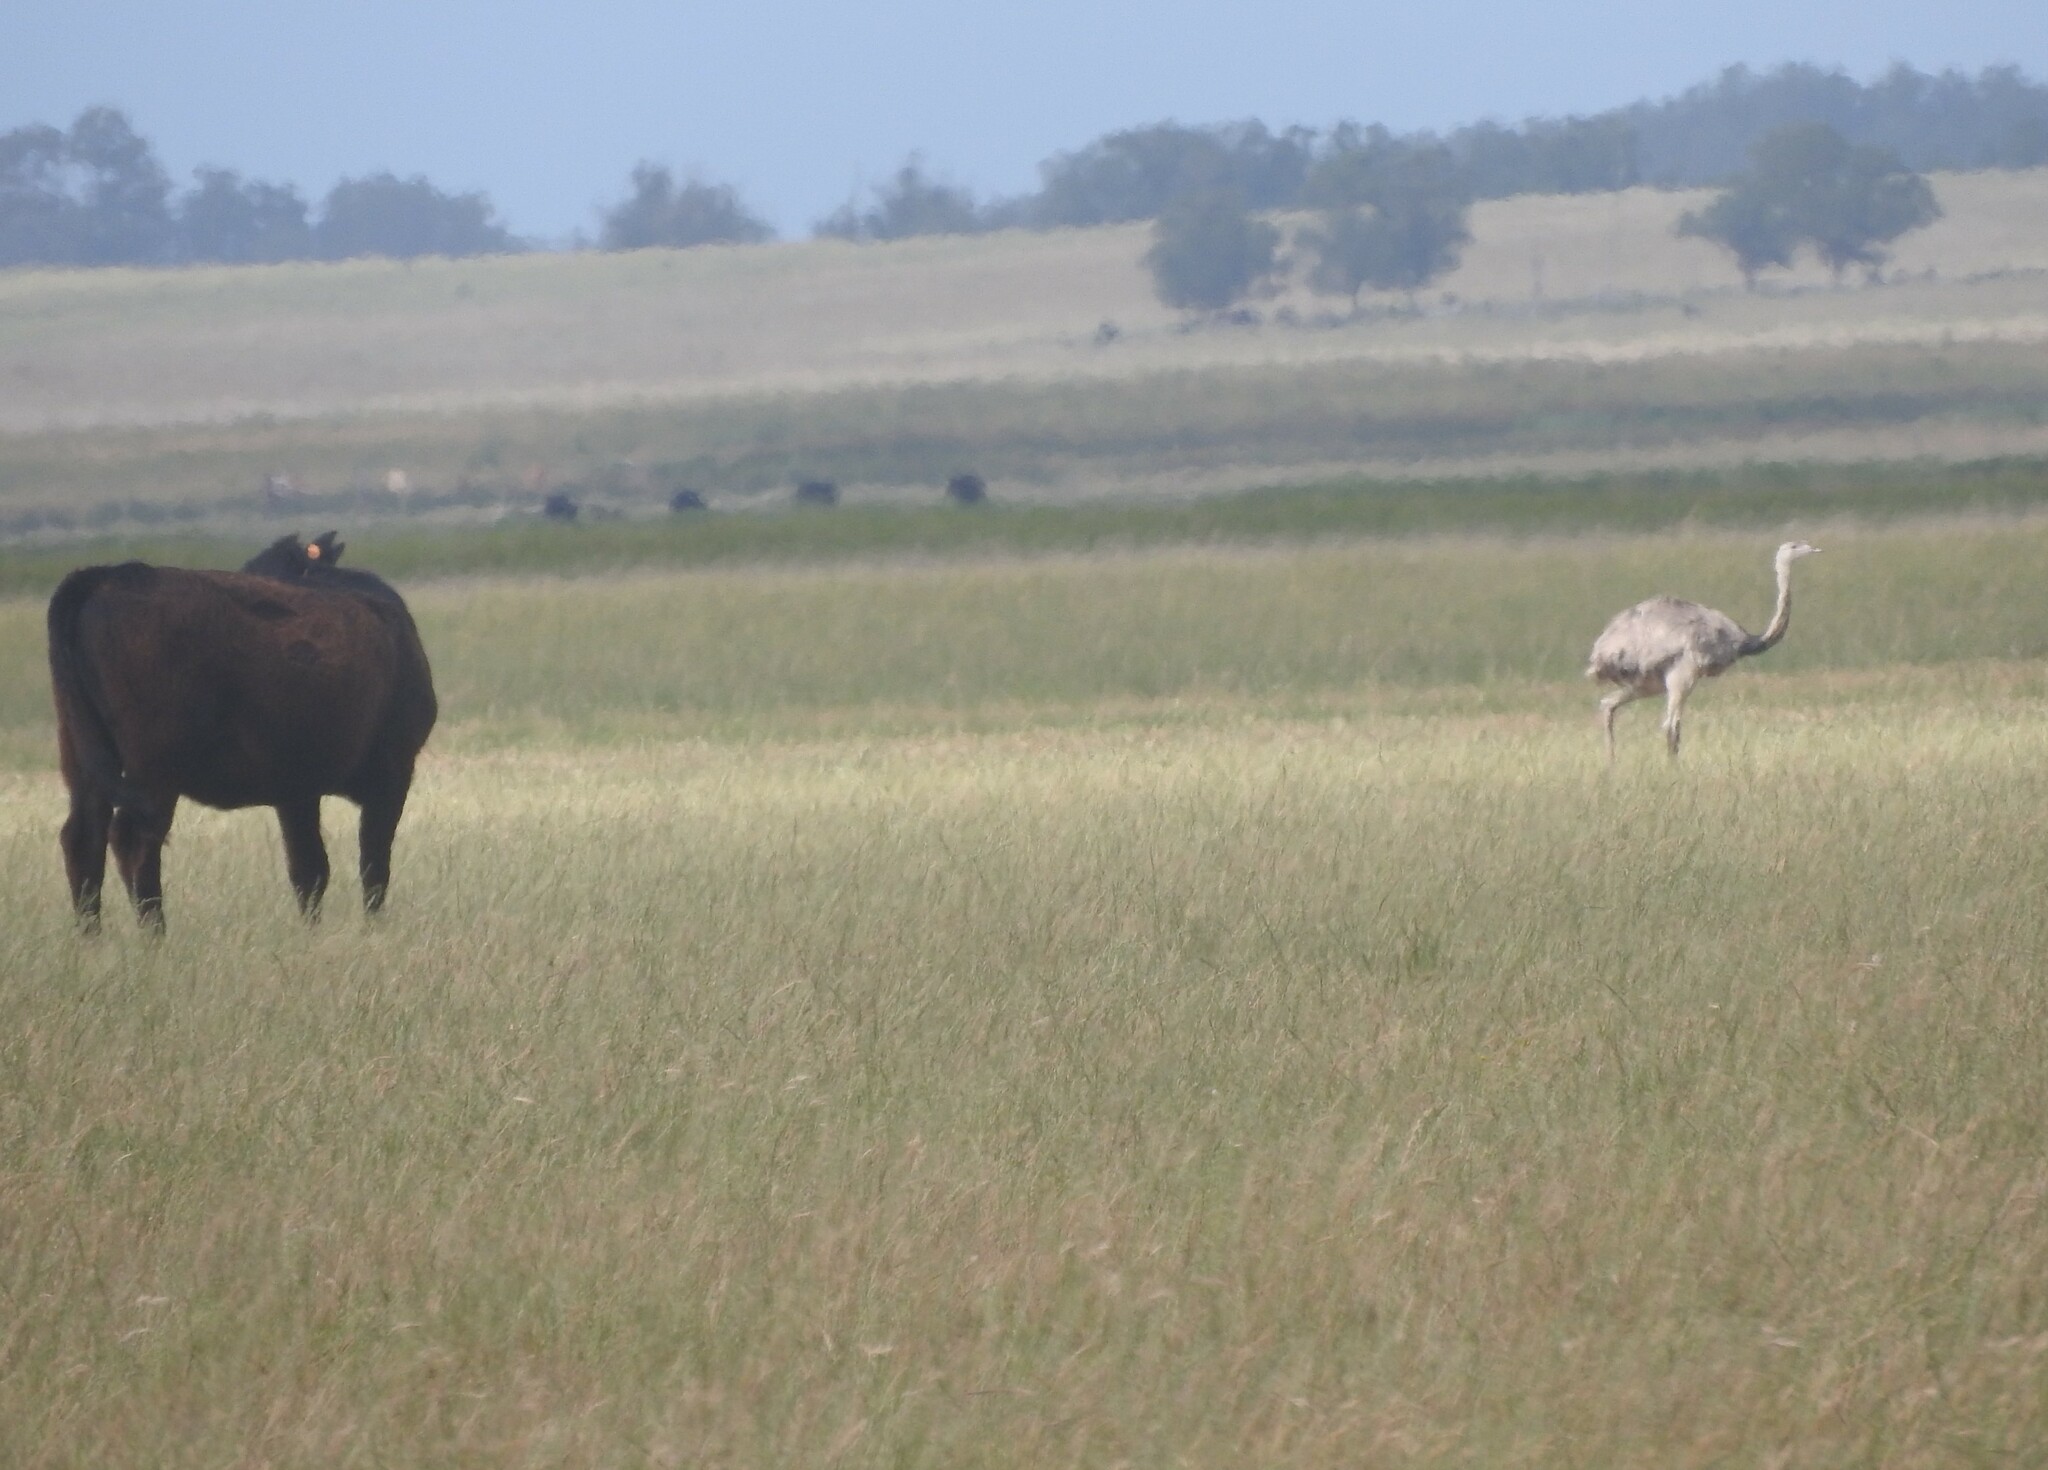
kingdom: Animalia
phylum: Chordata
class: Aves
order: Rheiformes
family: Rheidae
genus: Rhea
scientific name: Rhea americana
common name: Greater rhea
